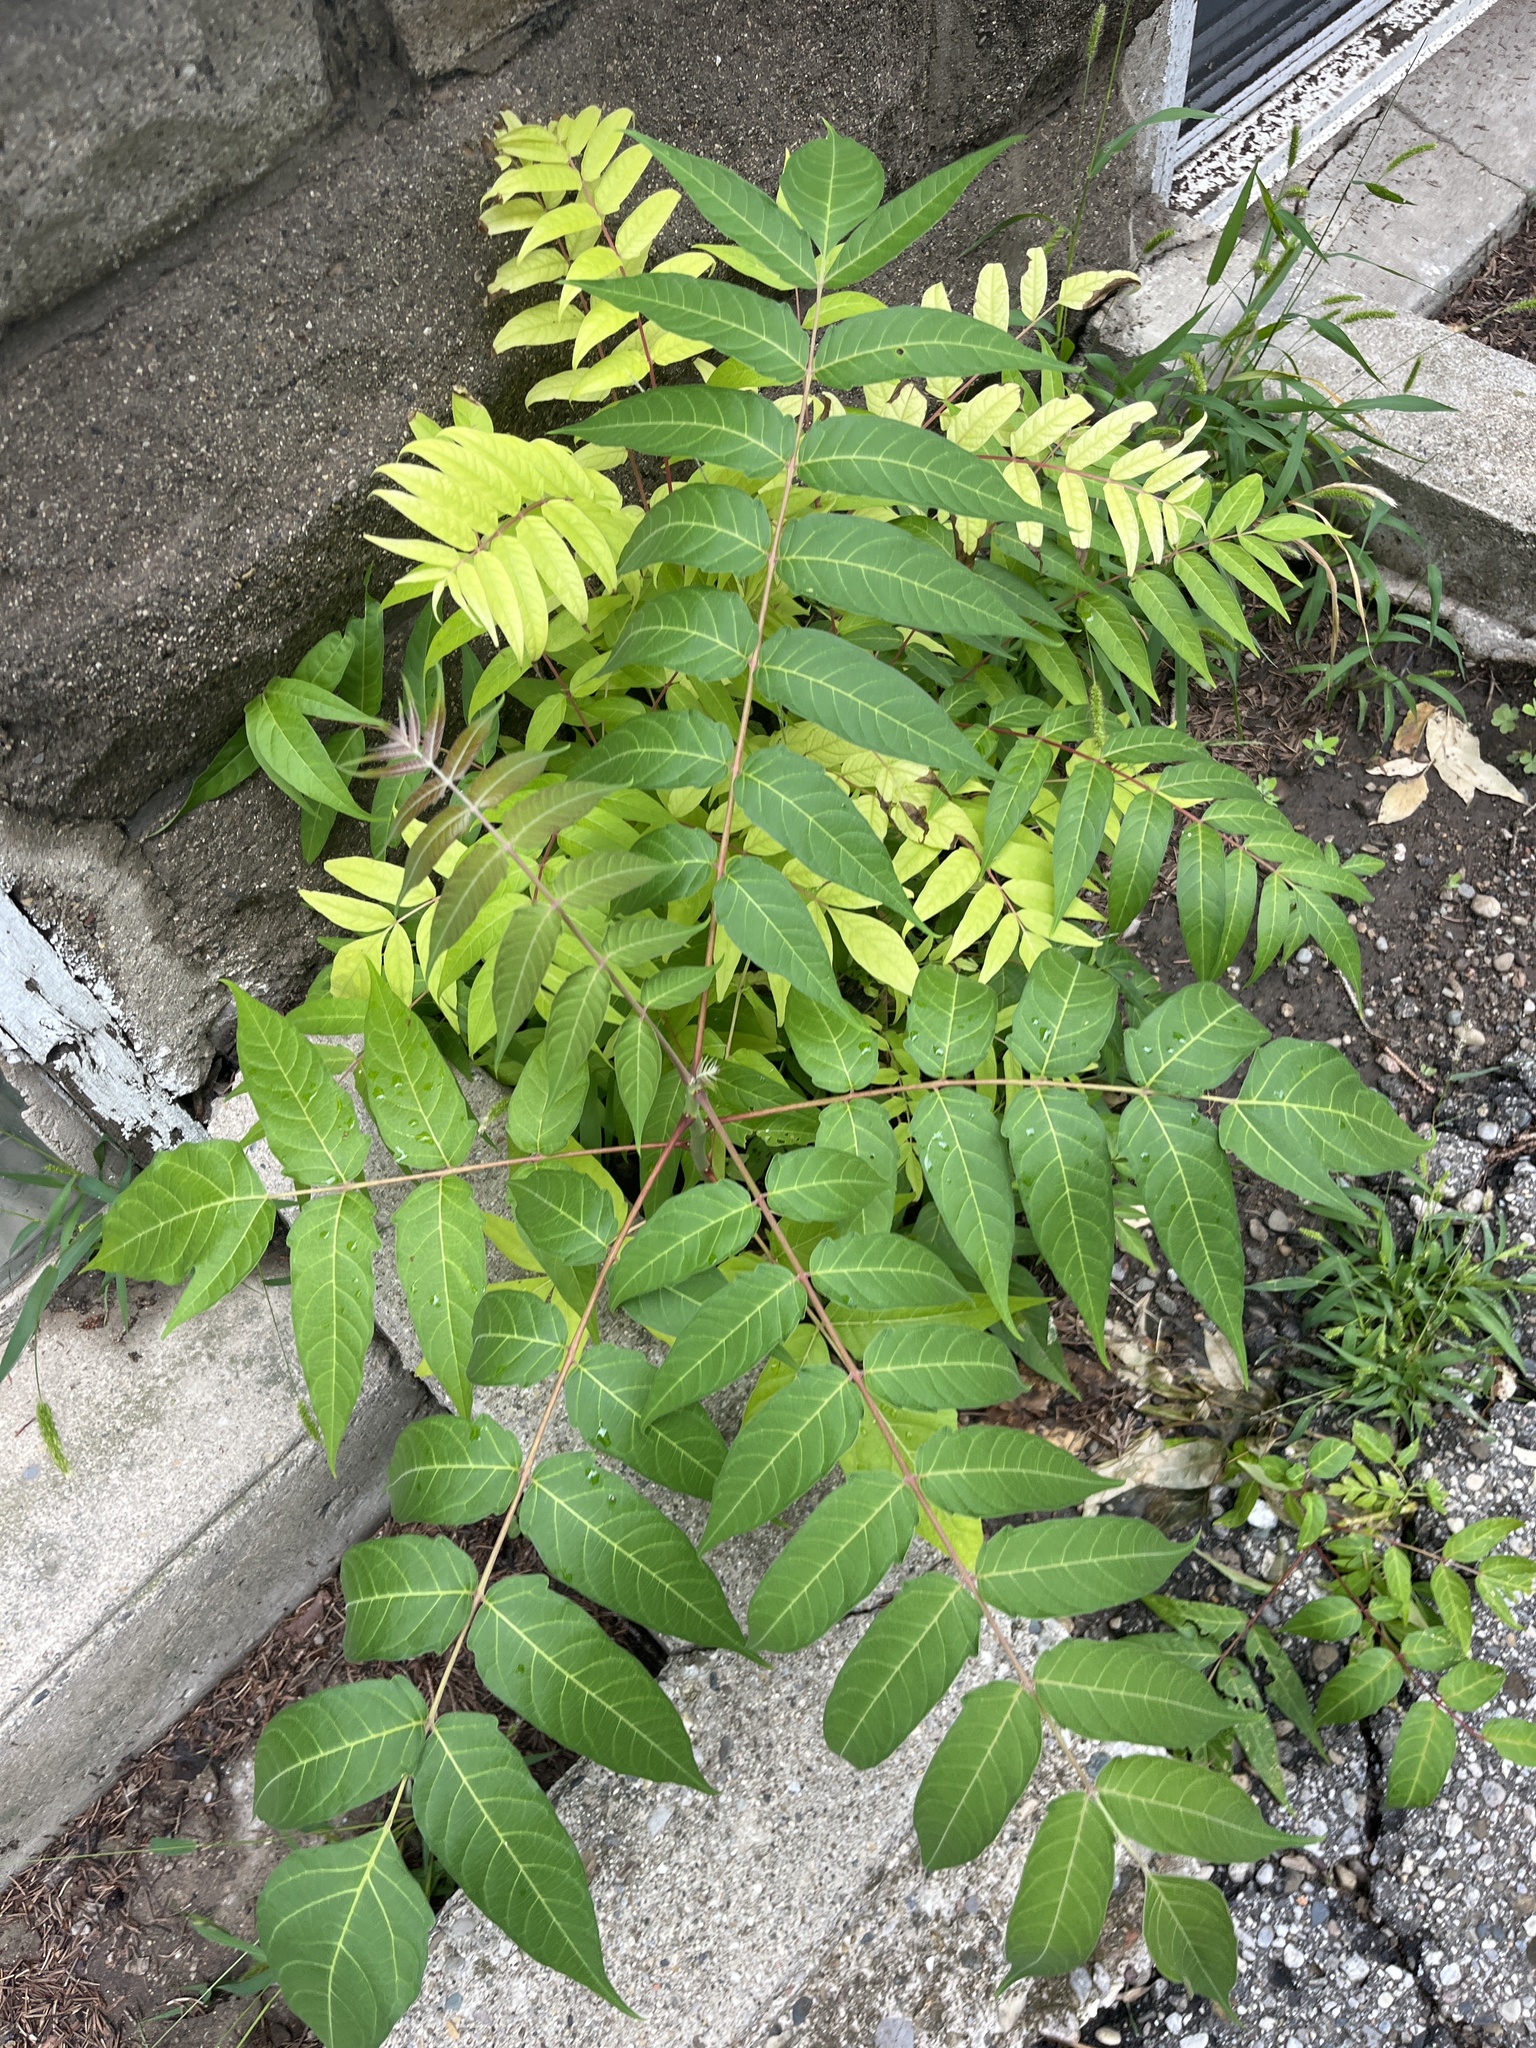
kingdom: Plantae
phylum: Tracheophyta
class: Magnoliopsida
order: Sapindales
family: Simaroubaceae
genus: Ailanthus
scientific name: Ailanthus altissima
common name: Tree-of-heaven
